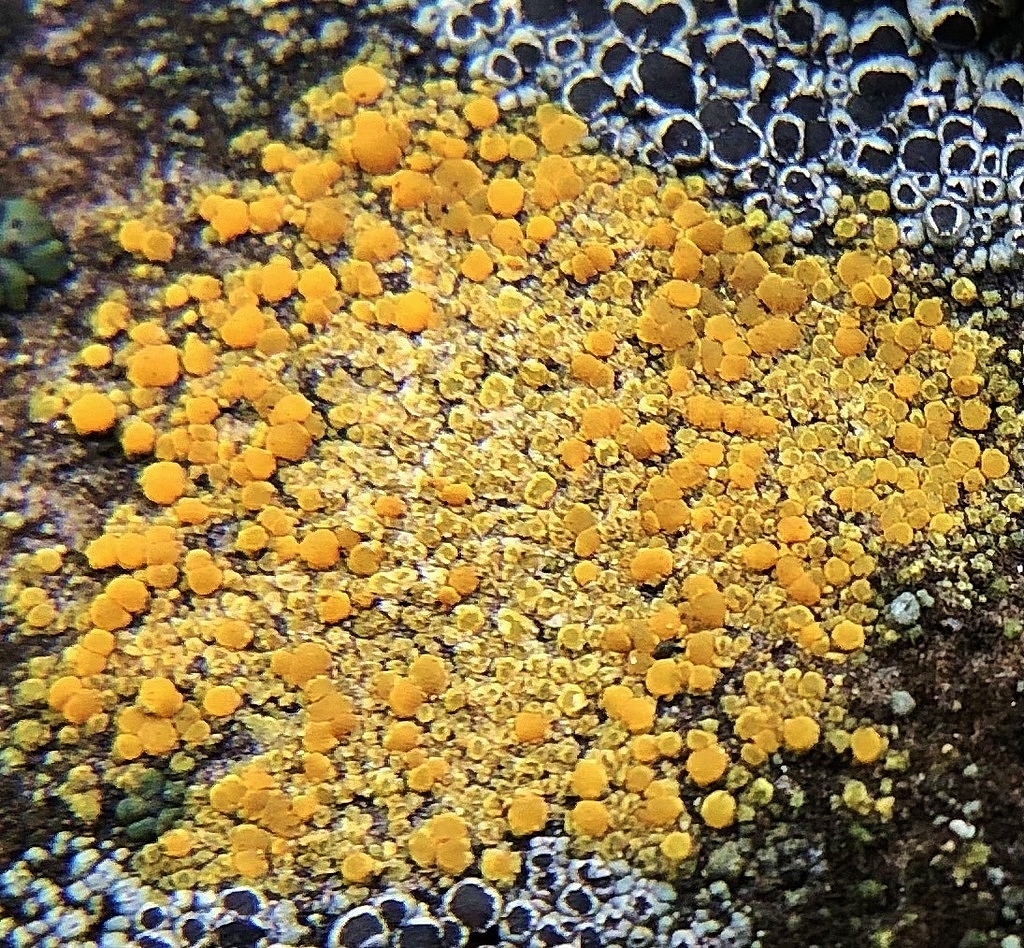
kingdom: Fungi
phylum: Ascomycota
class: Lecanoromycetes
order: Teloschistales
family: Teloschistaceae
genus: Gyalolechia
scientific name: Gyalolechia flavovirescens
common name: Sulphur firedot
